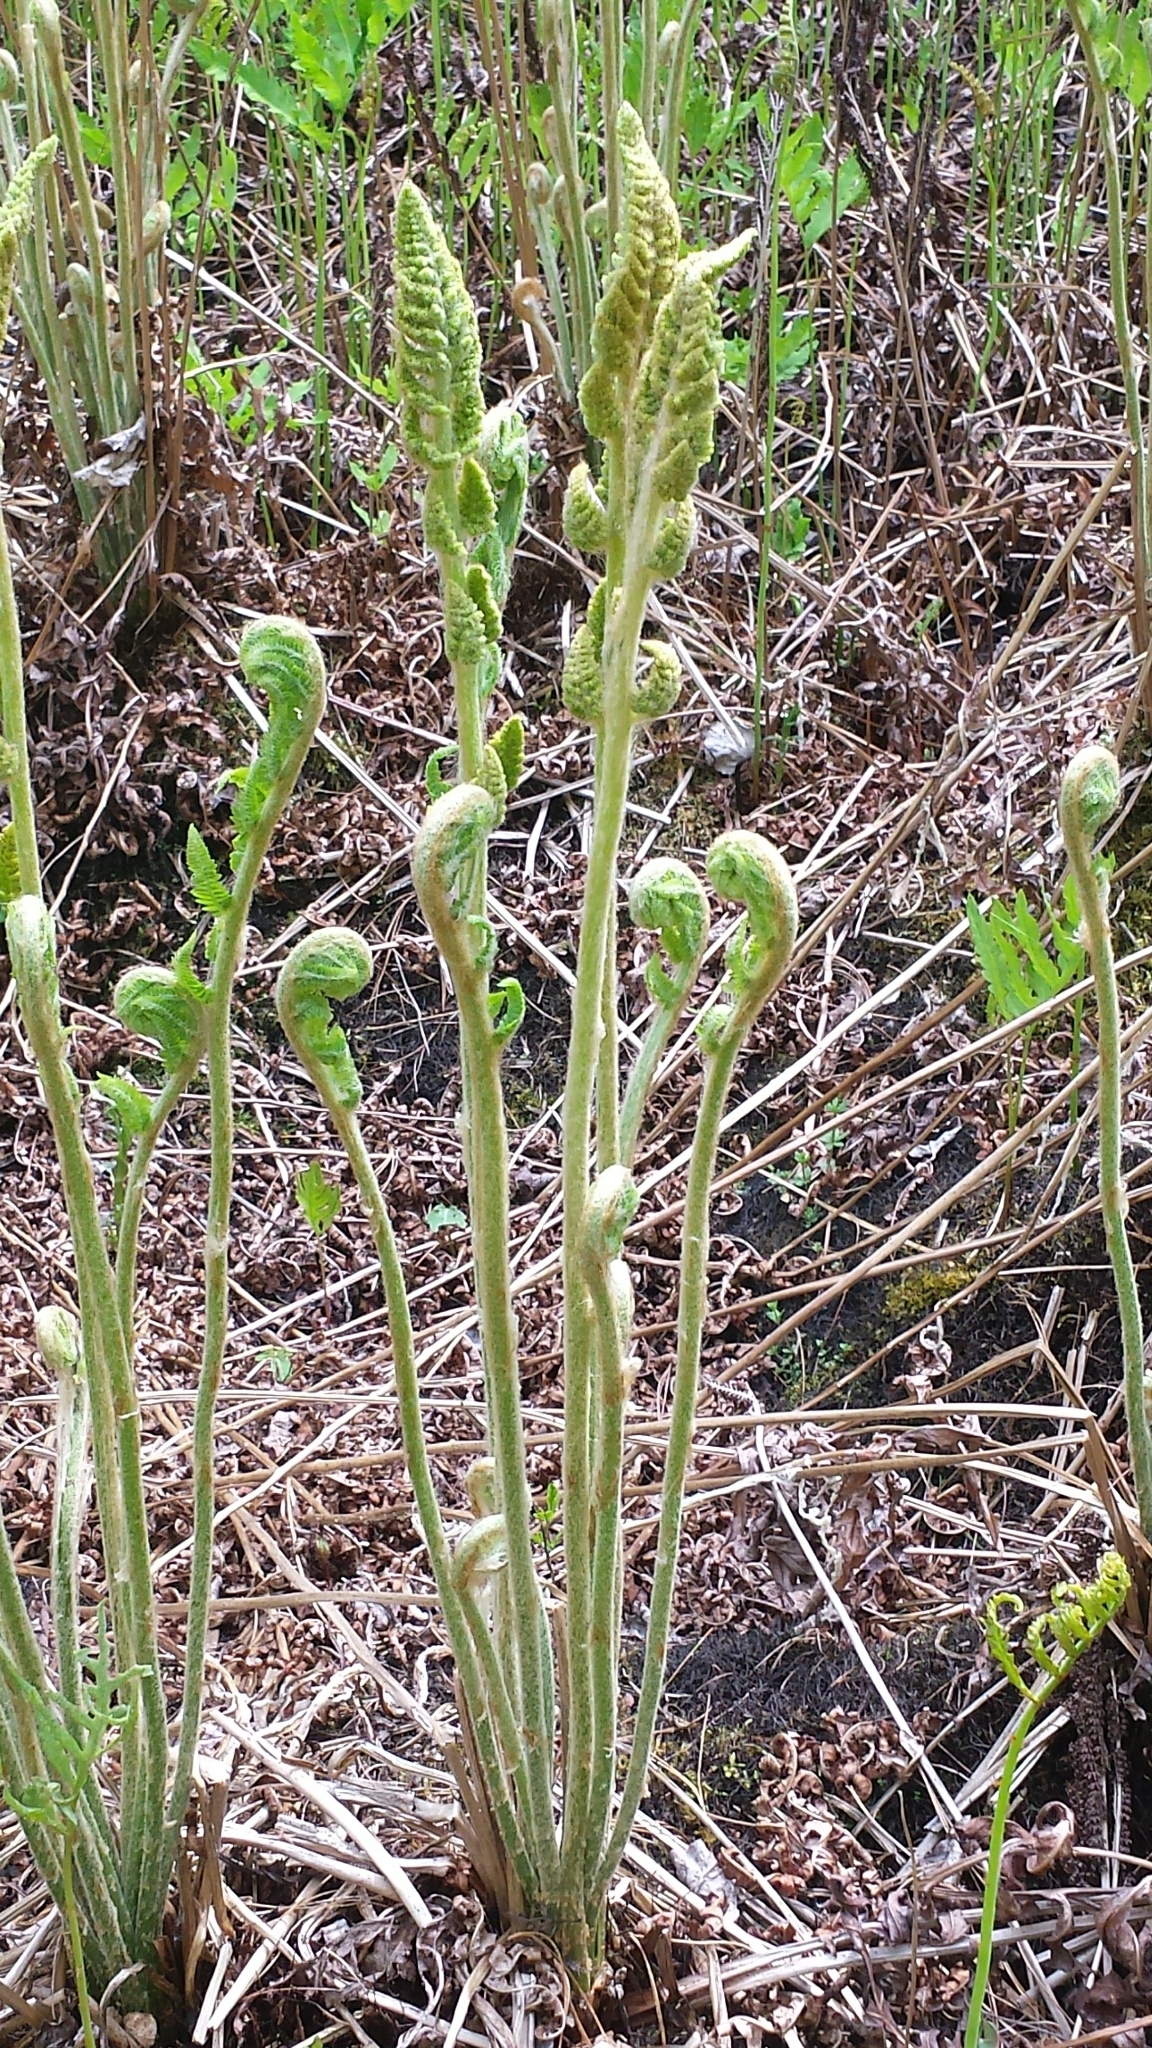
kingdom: Plantae
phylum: Tracheophyta
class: Polypodiopsida
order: Osmundales
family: Osmundaceae
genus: Osmundastrum
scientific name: Osmundastrum cinnamomeum
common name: Cinnamon fern
